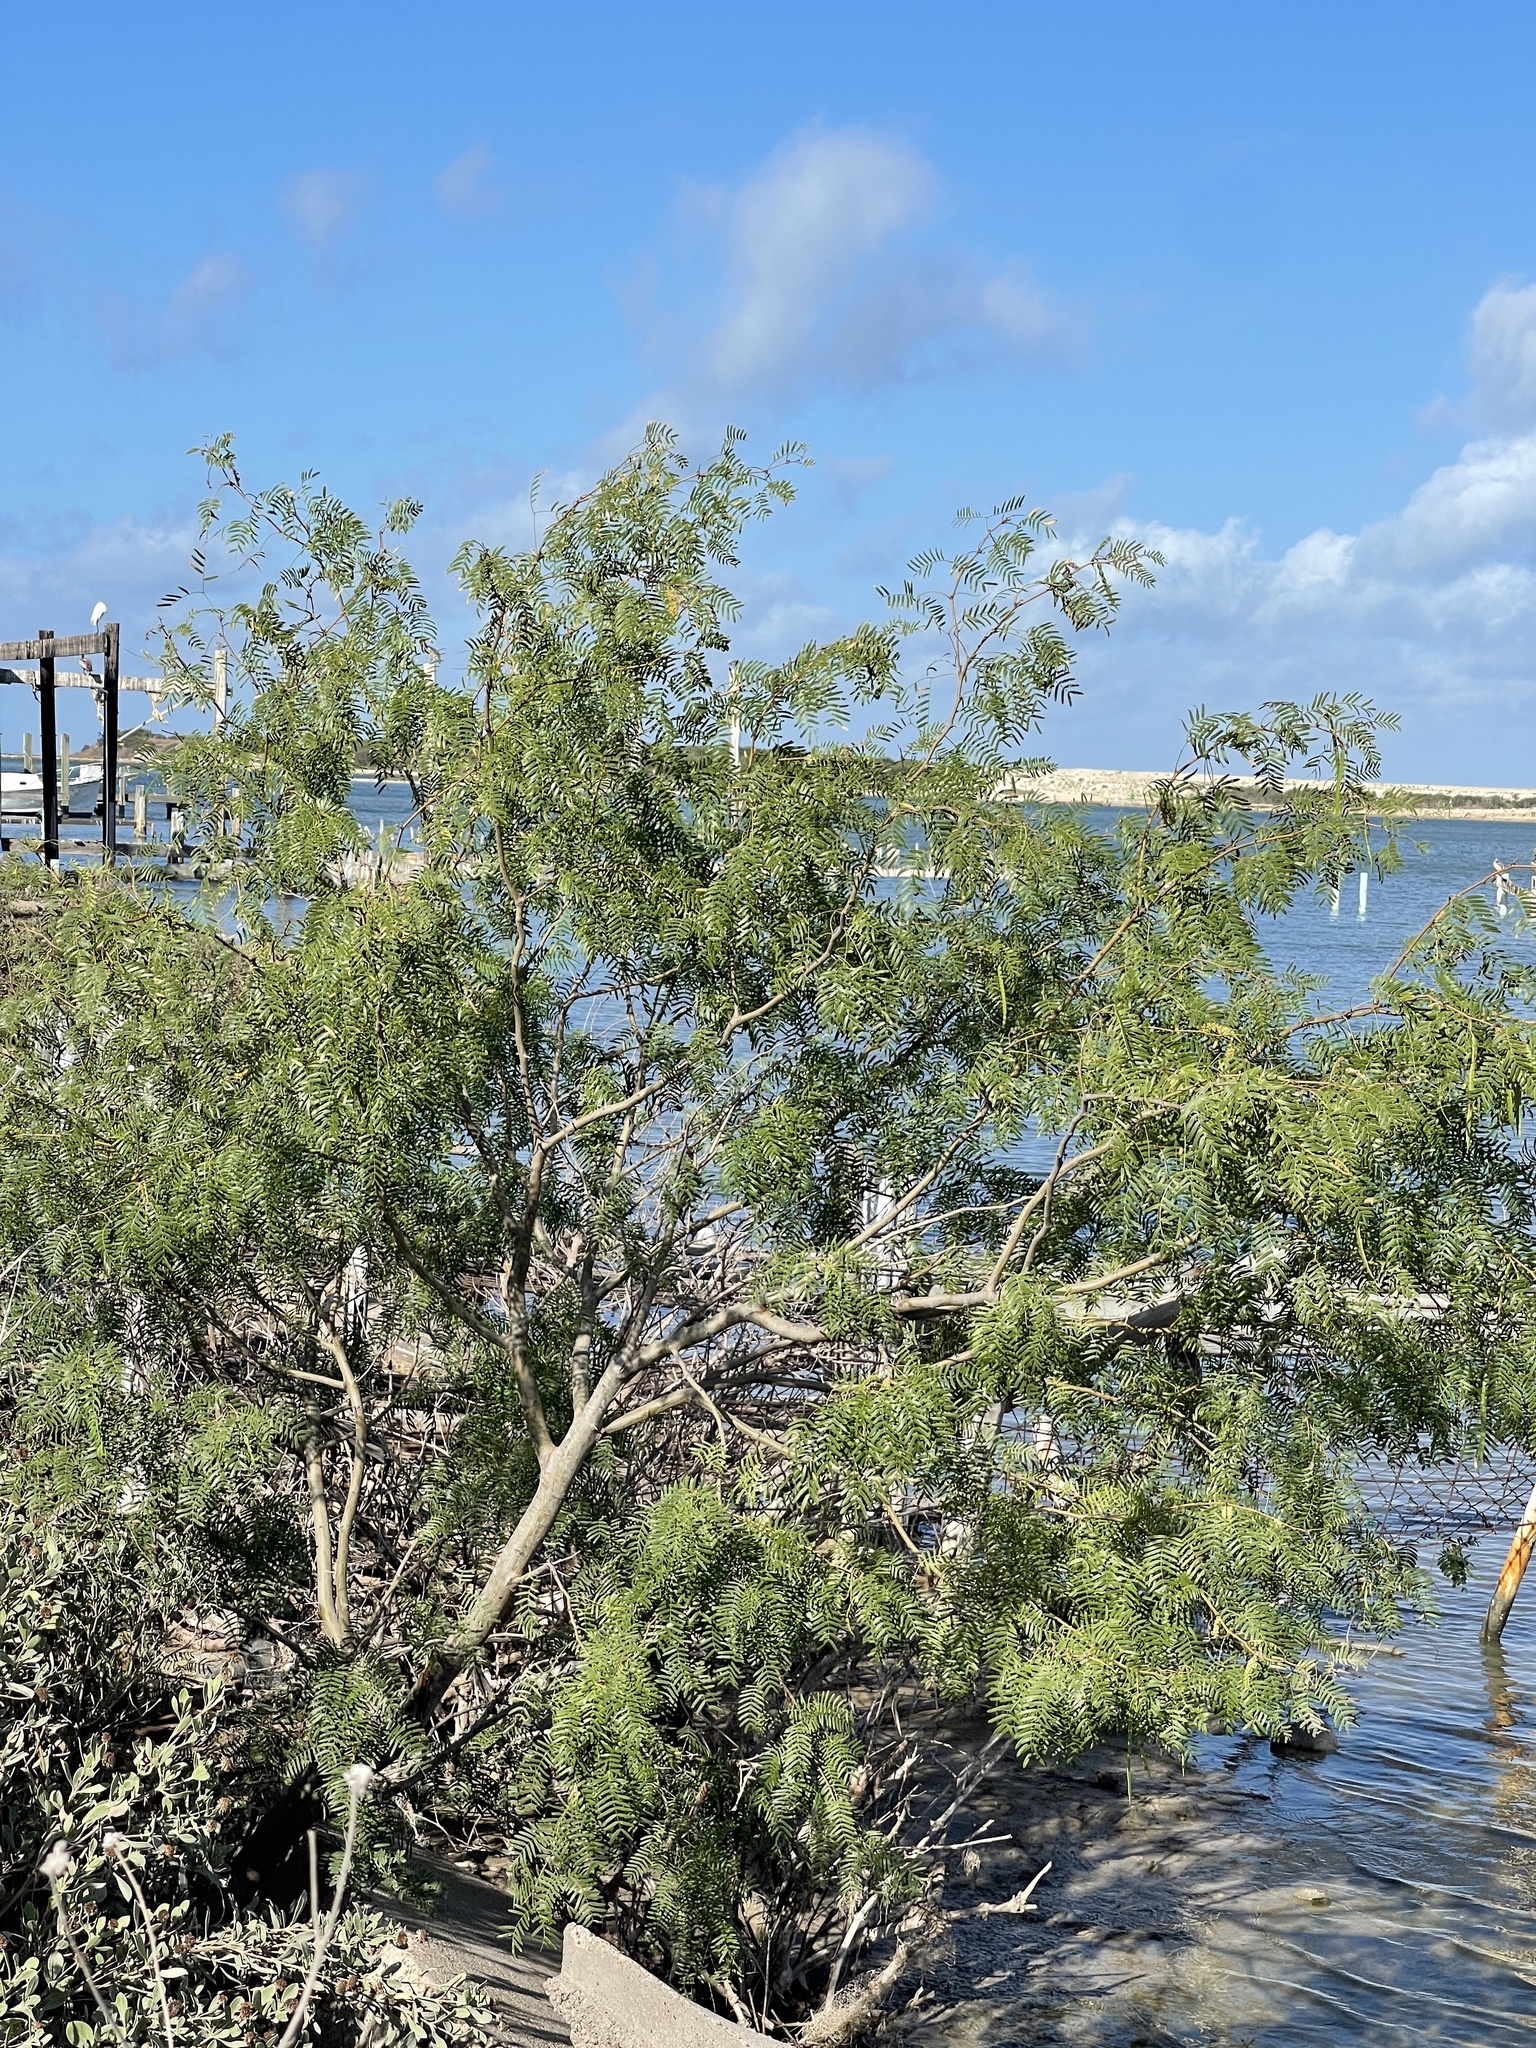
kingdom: Plantae
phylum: Tracheophyta
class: Magnoliopsida
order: Fabales
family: Fabaceae
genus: Prosopis
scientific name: Prosopis glandulosa
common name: Honey mesquite
